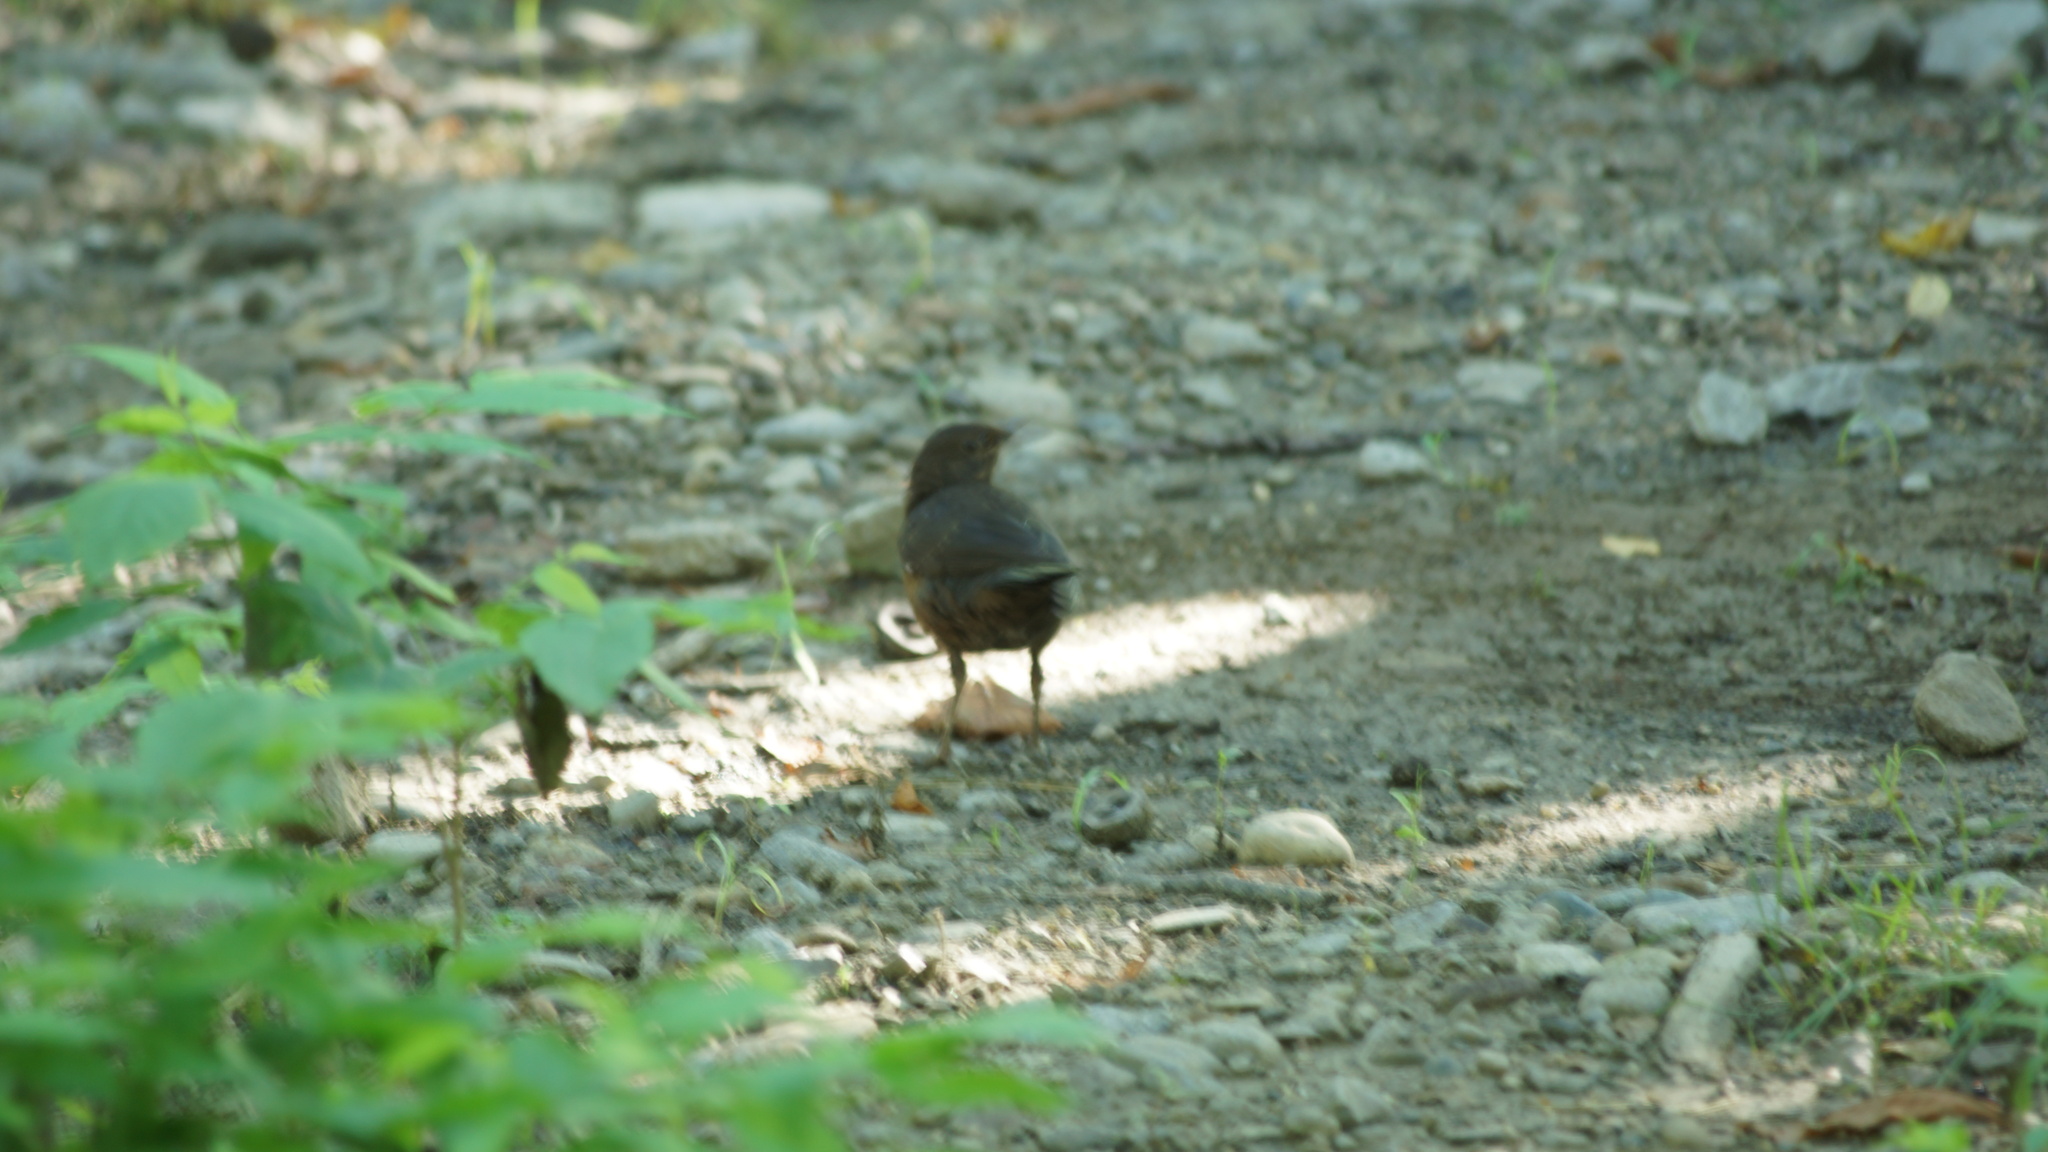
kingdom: Animalia
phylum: Chordata
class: Aves
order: Passeriformes
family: Turdidae
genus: Turdus
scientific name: Turdus merula
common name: Common blackbird
